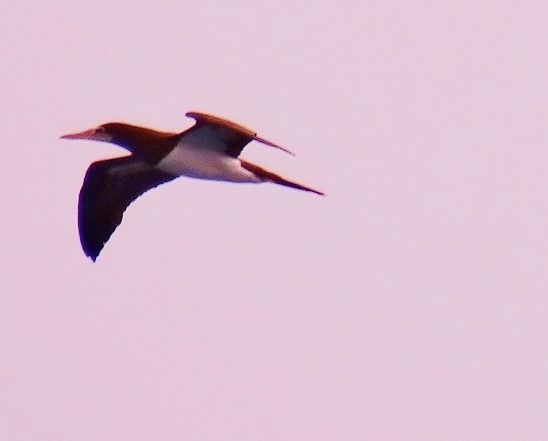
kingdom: Animalia
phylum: Chordata
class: Aves
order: Suliformes
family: Sulidae
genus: Sula
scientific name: Sula leucogaster
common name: Brown booby
